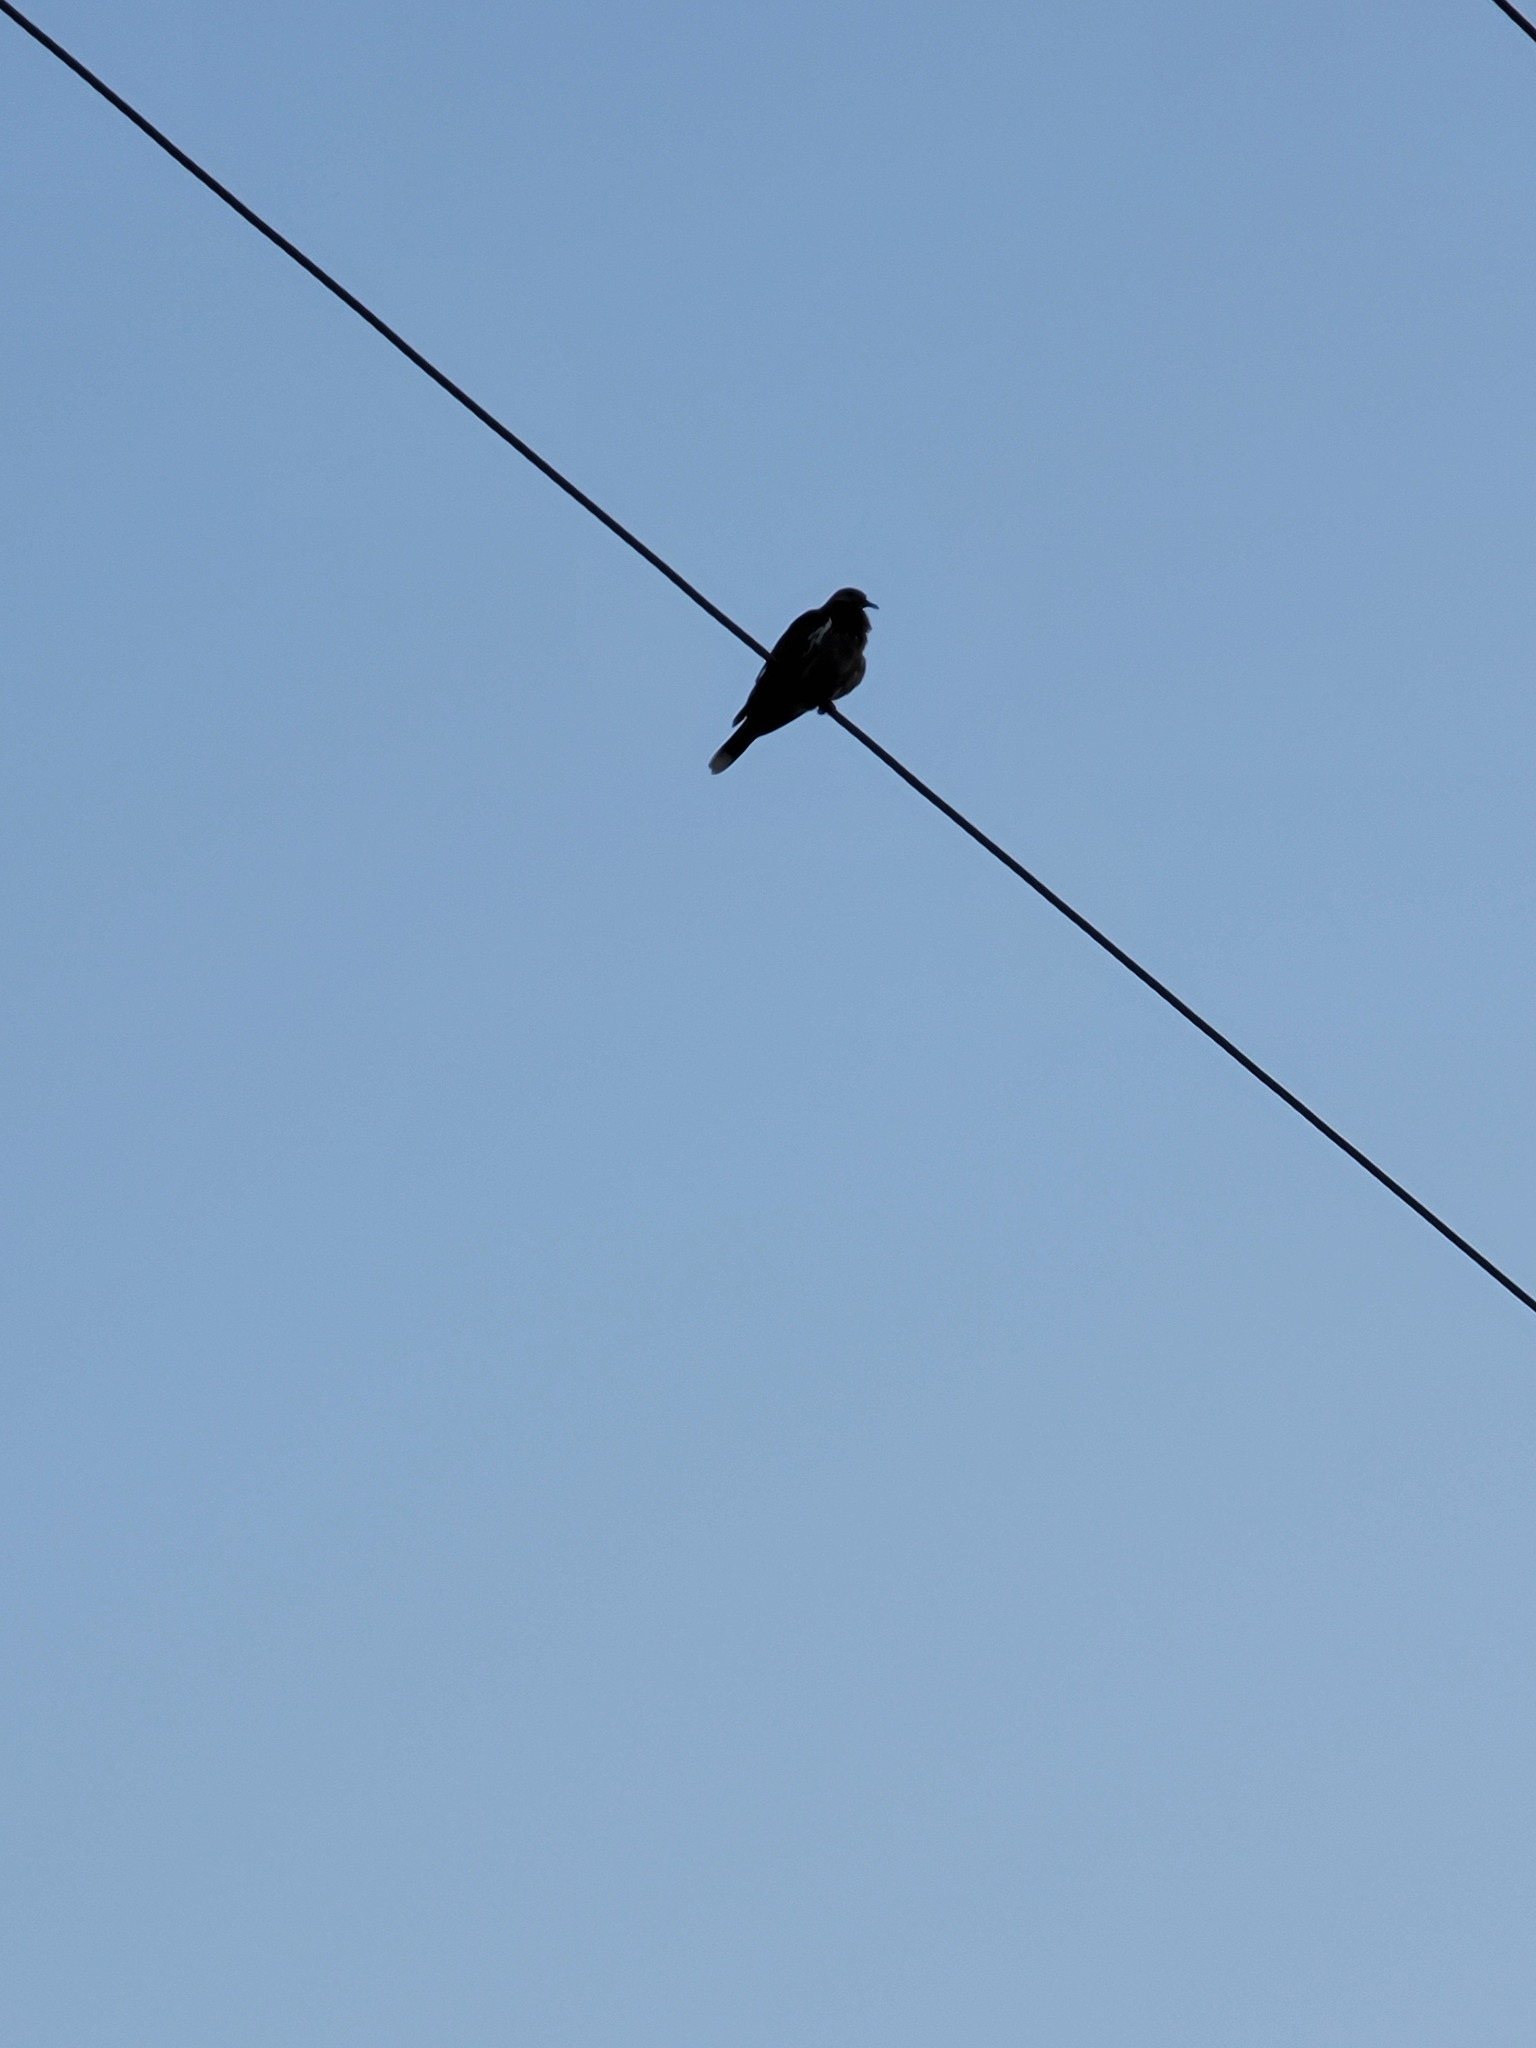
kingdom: Animalia
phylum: Chordata
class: Aves
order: Columbiformes
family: Columbidae
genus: Zenaida
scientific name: Zenaida asiatica
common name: White-winged dove
